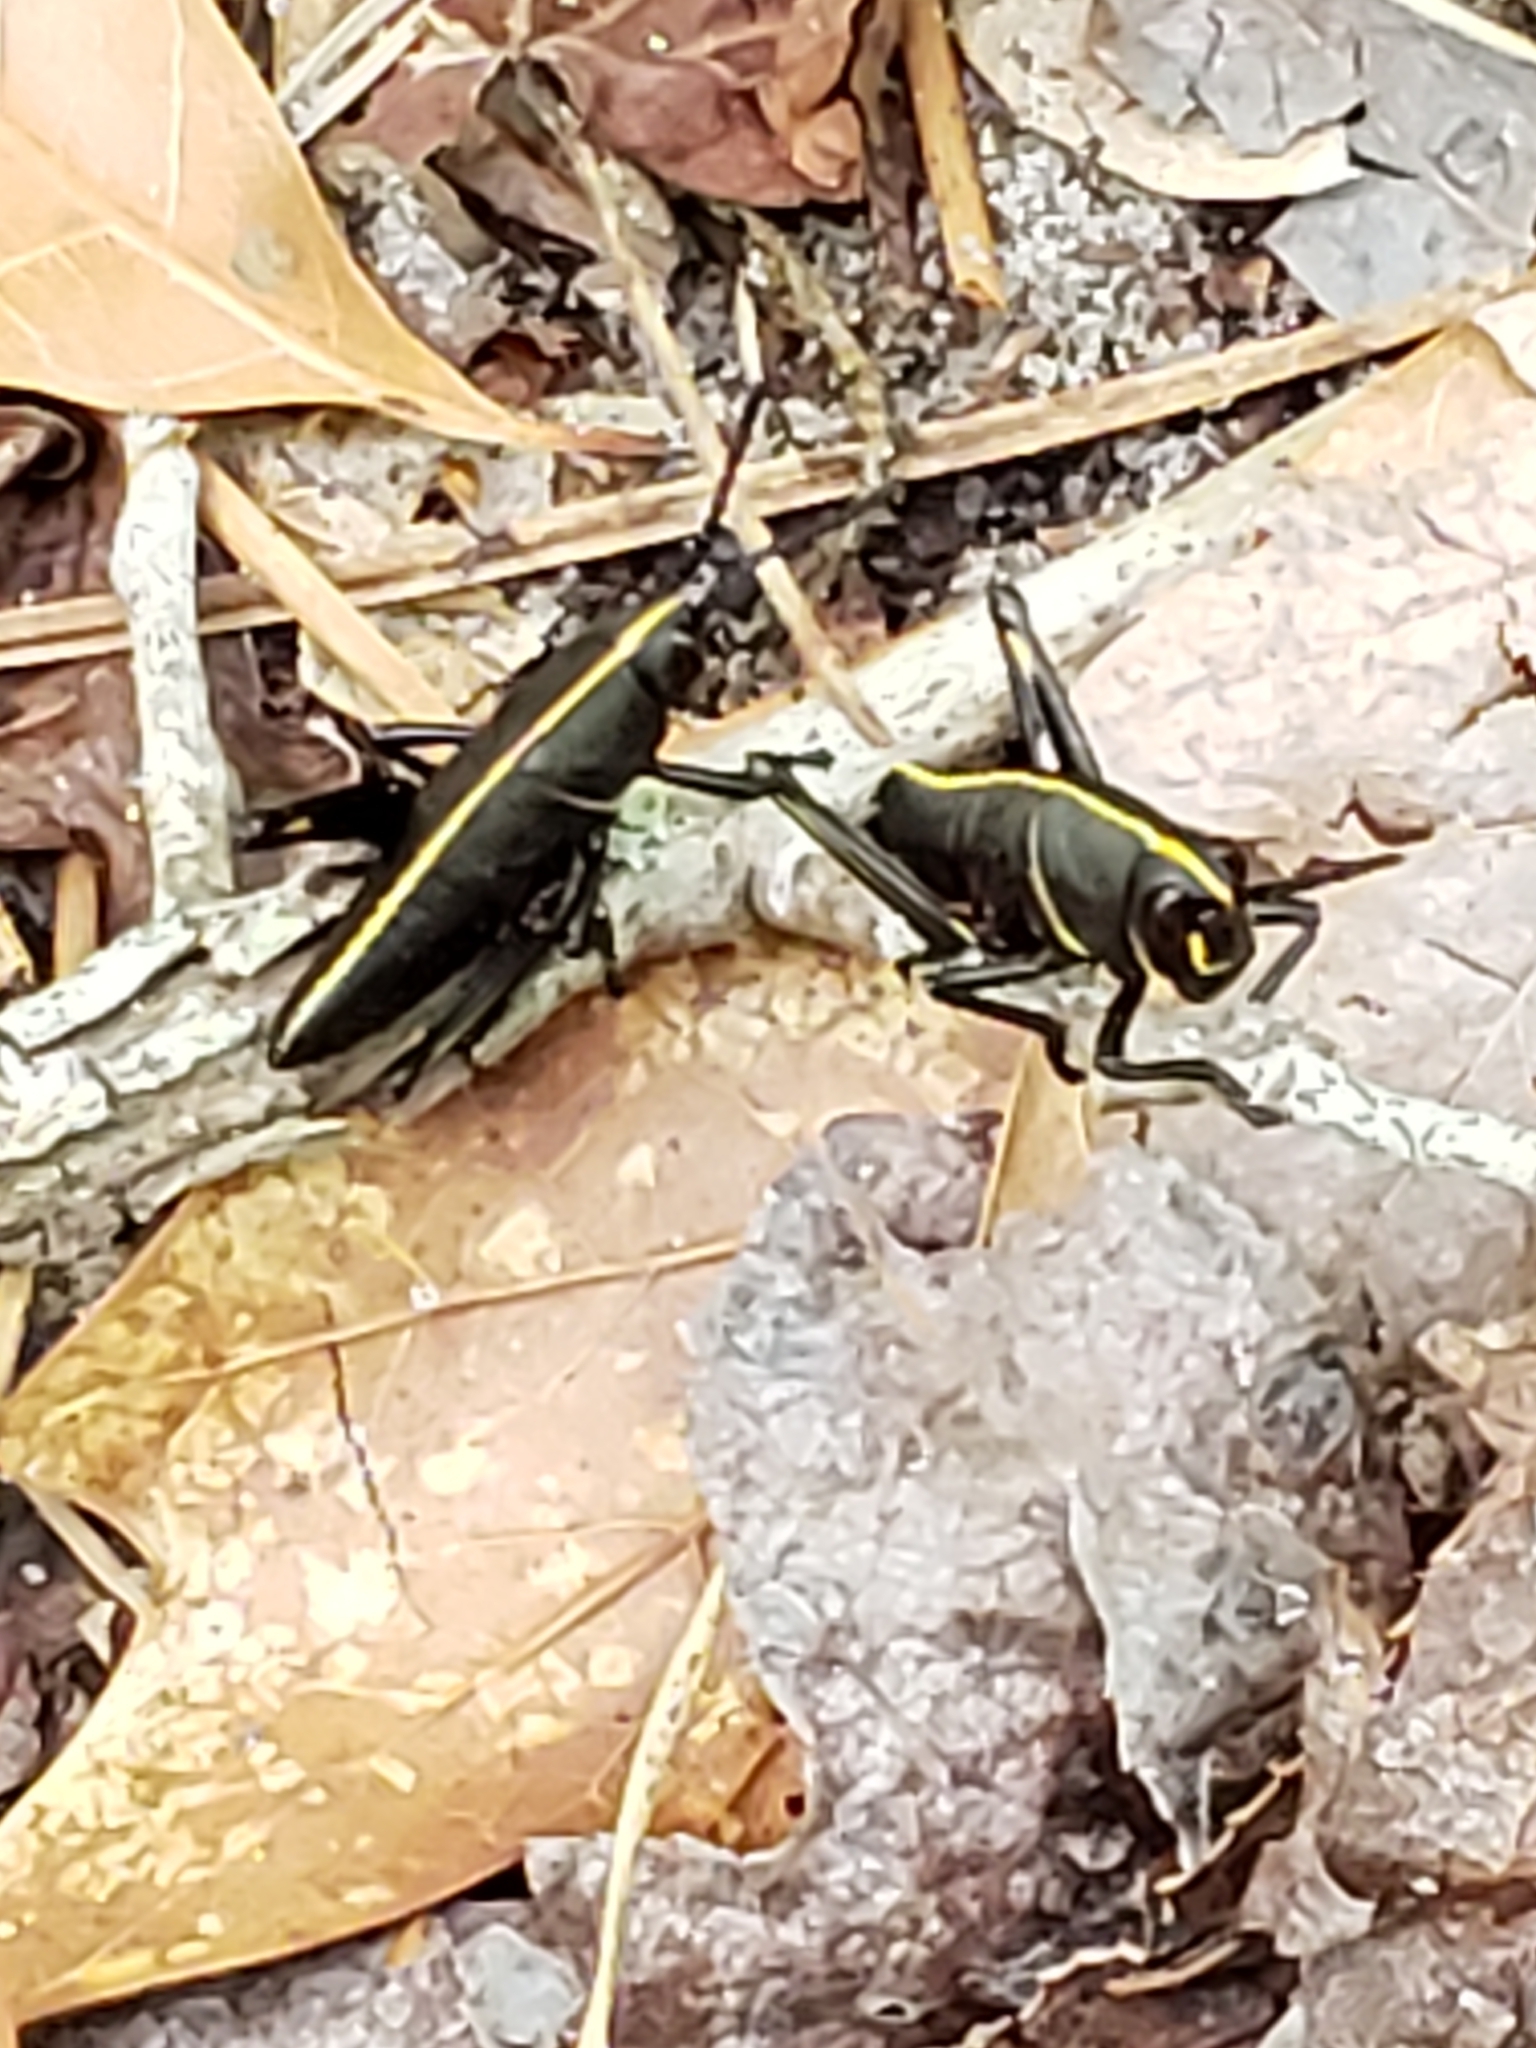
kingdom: Animalia
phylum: Arthropoda
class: Insecta
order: Orthoptera
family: Romaleidae
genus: Romalea
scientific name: Romalea microptera
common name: Eastern lubber grasshopper
